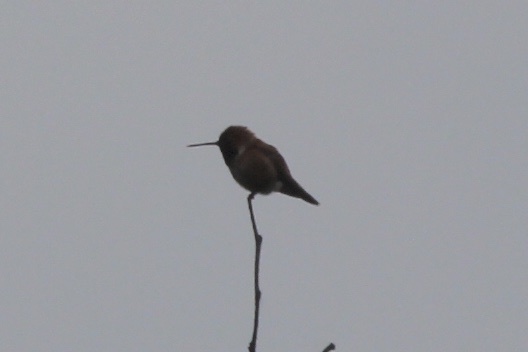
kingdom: Animalia
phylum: Chordata
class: Aves
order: Apodiformes
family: Trochilidae
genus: Selasphorus
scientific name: Selasphorus rufus
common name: Rufous hummingbird
